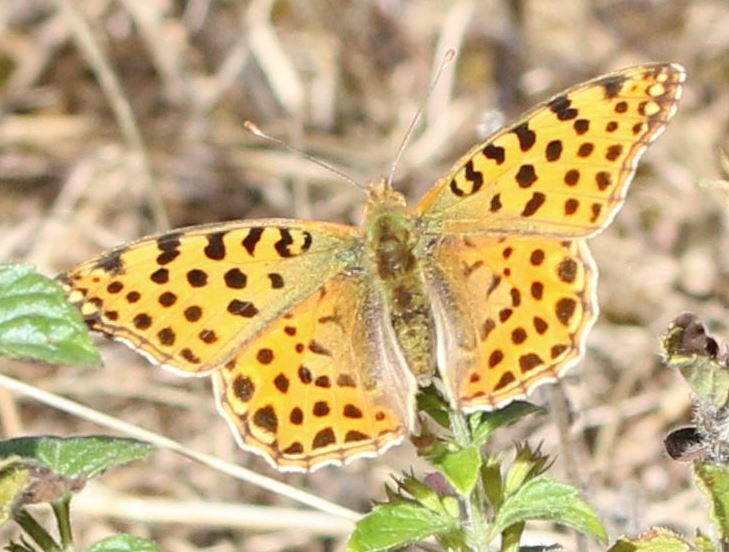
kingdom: Animalia
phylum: Arthropoda
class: Insecta
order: Lepidoptera
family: Nymphalidae
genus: Issoria
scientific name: Issoria lathonia
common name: Queen of spain fritillary
